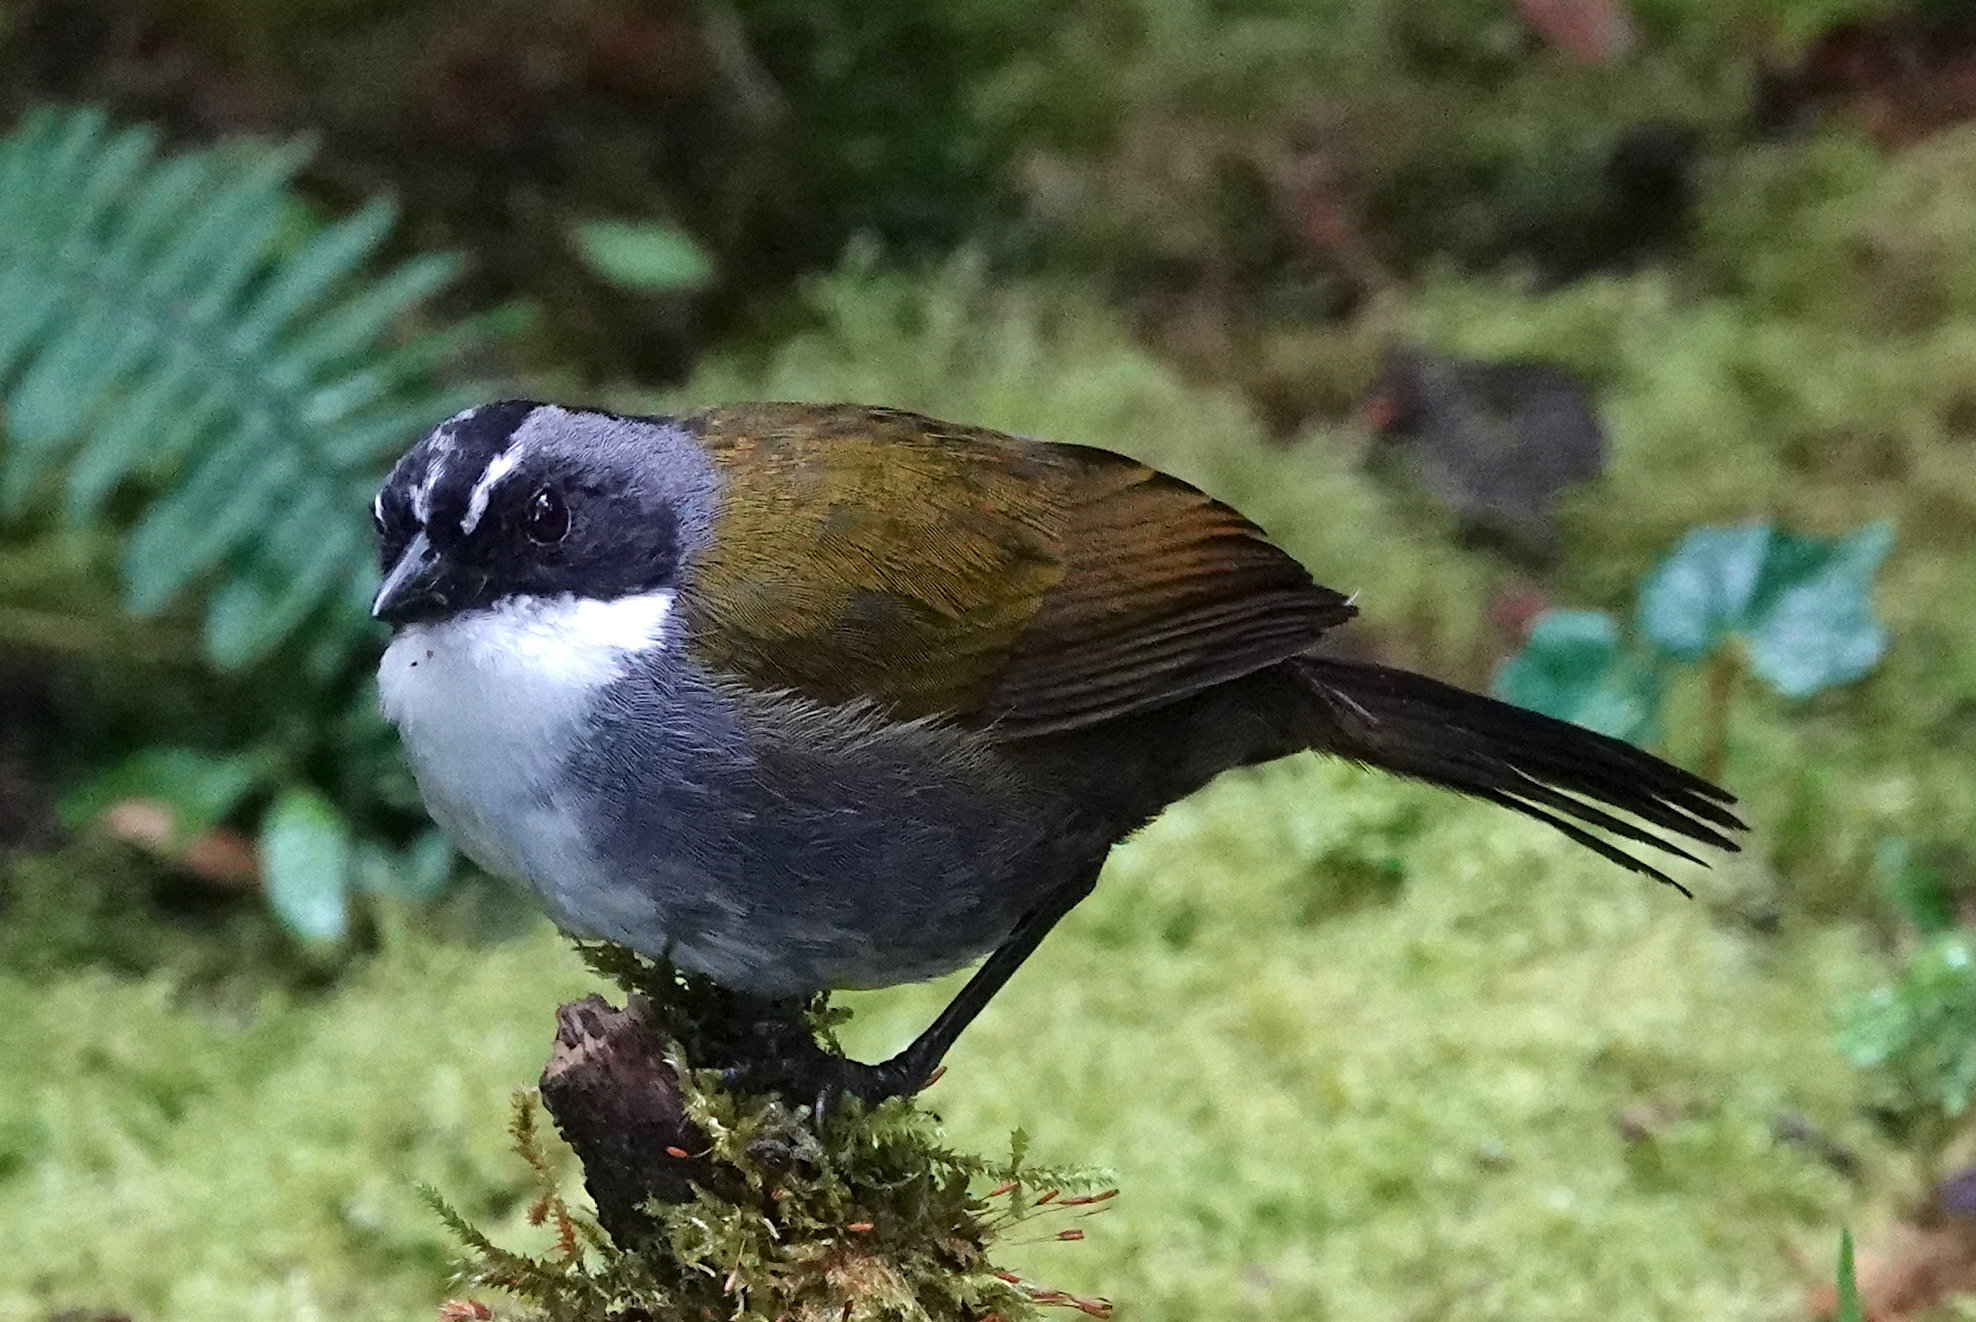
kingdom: Animalia
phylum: Chordata
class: Aves
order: Passeriformes
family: Passerellidae
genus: Arremon
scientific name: Arremon assimilis
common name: Grey-browed brushfinch
